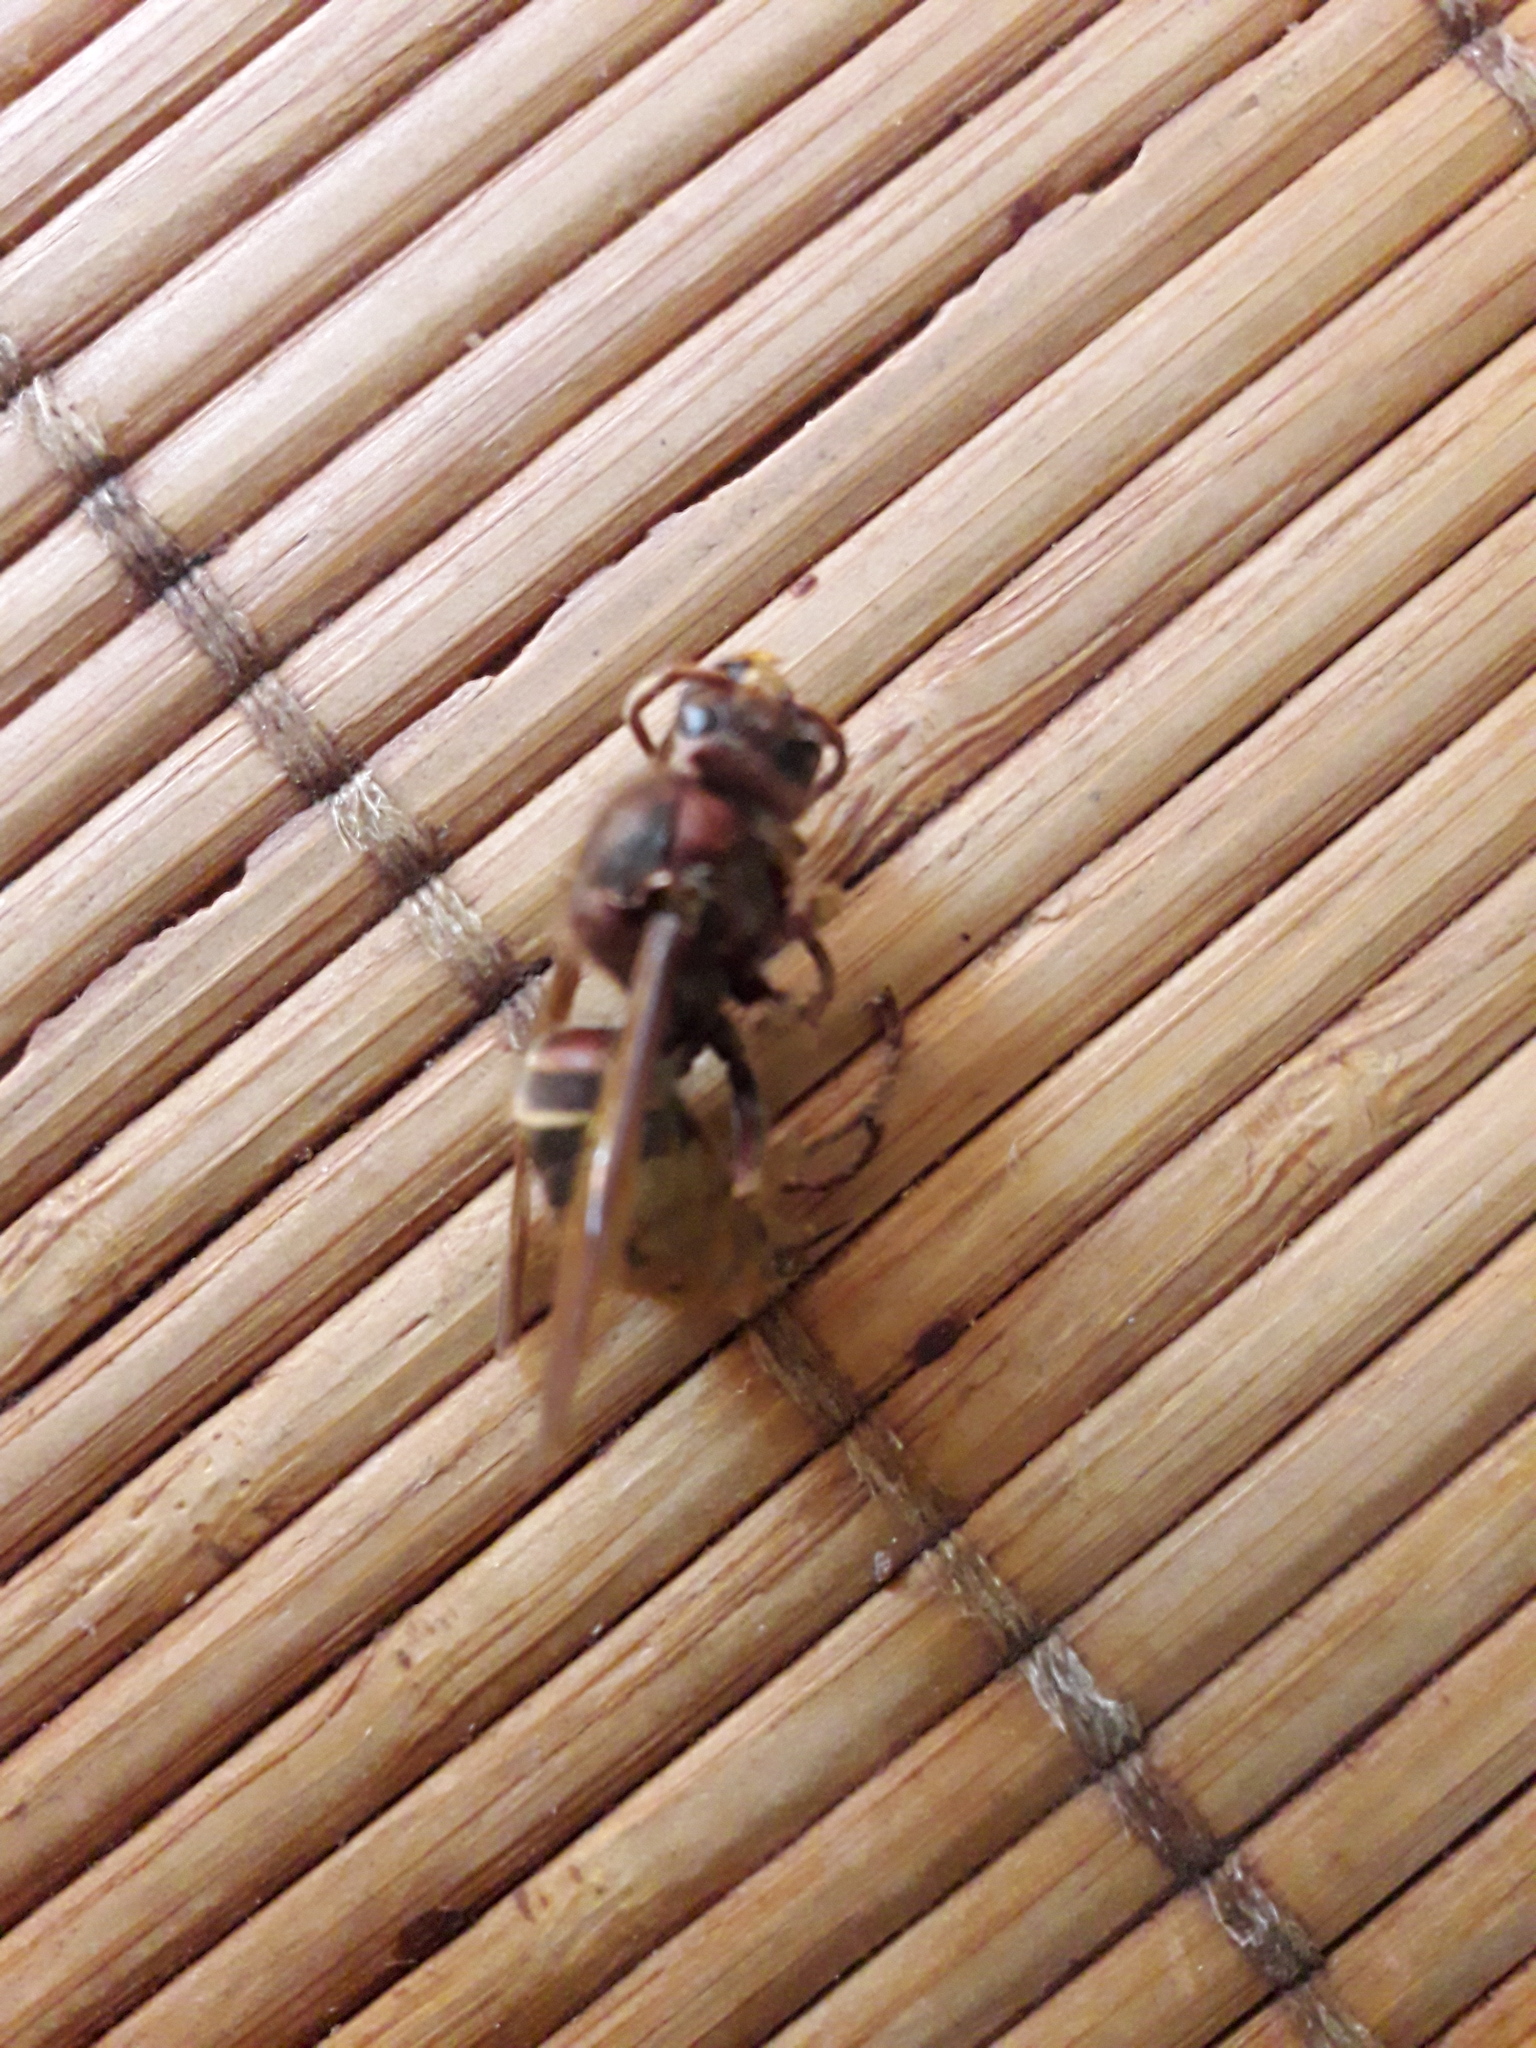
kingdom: Animalia
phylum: Arthropoda
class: Insecta
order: Hymenoptera
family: Vespidae
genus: Vespa
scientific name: Vespa crabro
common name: Hornet
